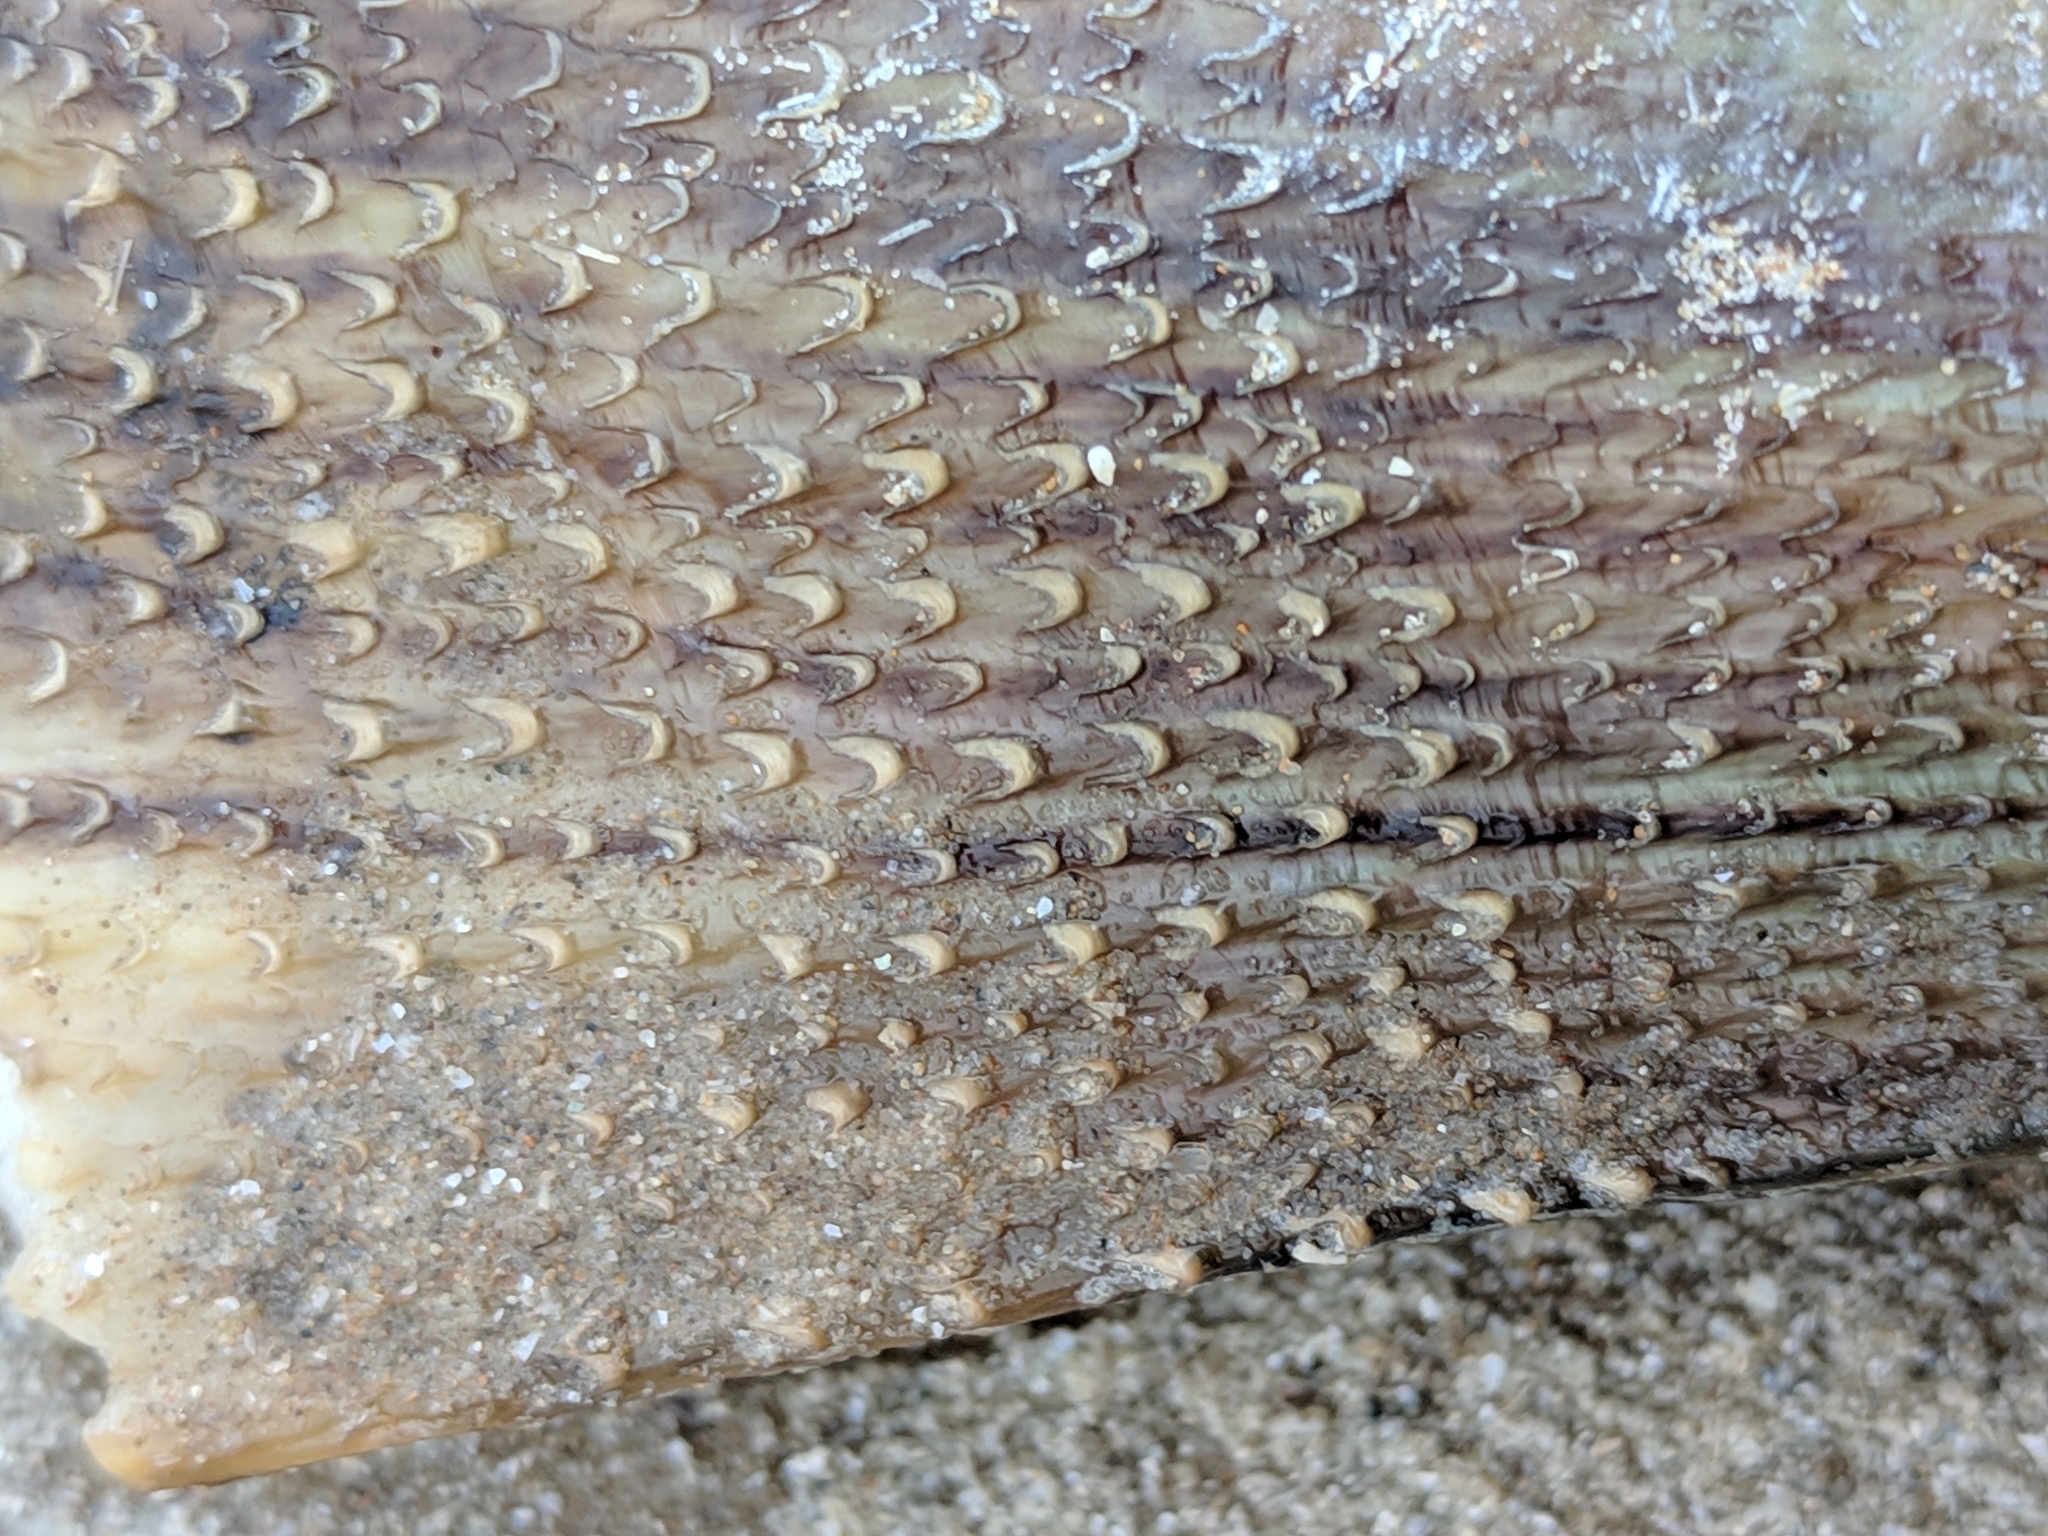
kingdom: Animalia
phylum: Mollusca
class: Bivalvia
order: Ostreida
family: Pinnidae
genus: Atrina
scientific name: Atrina serrata
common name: Saw-toothed penshell
